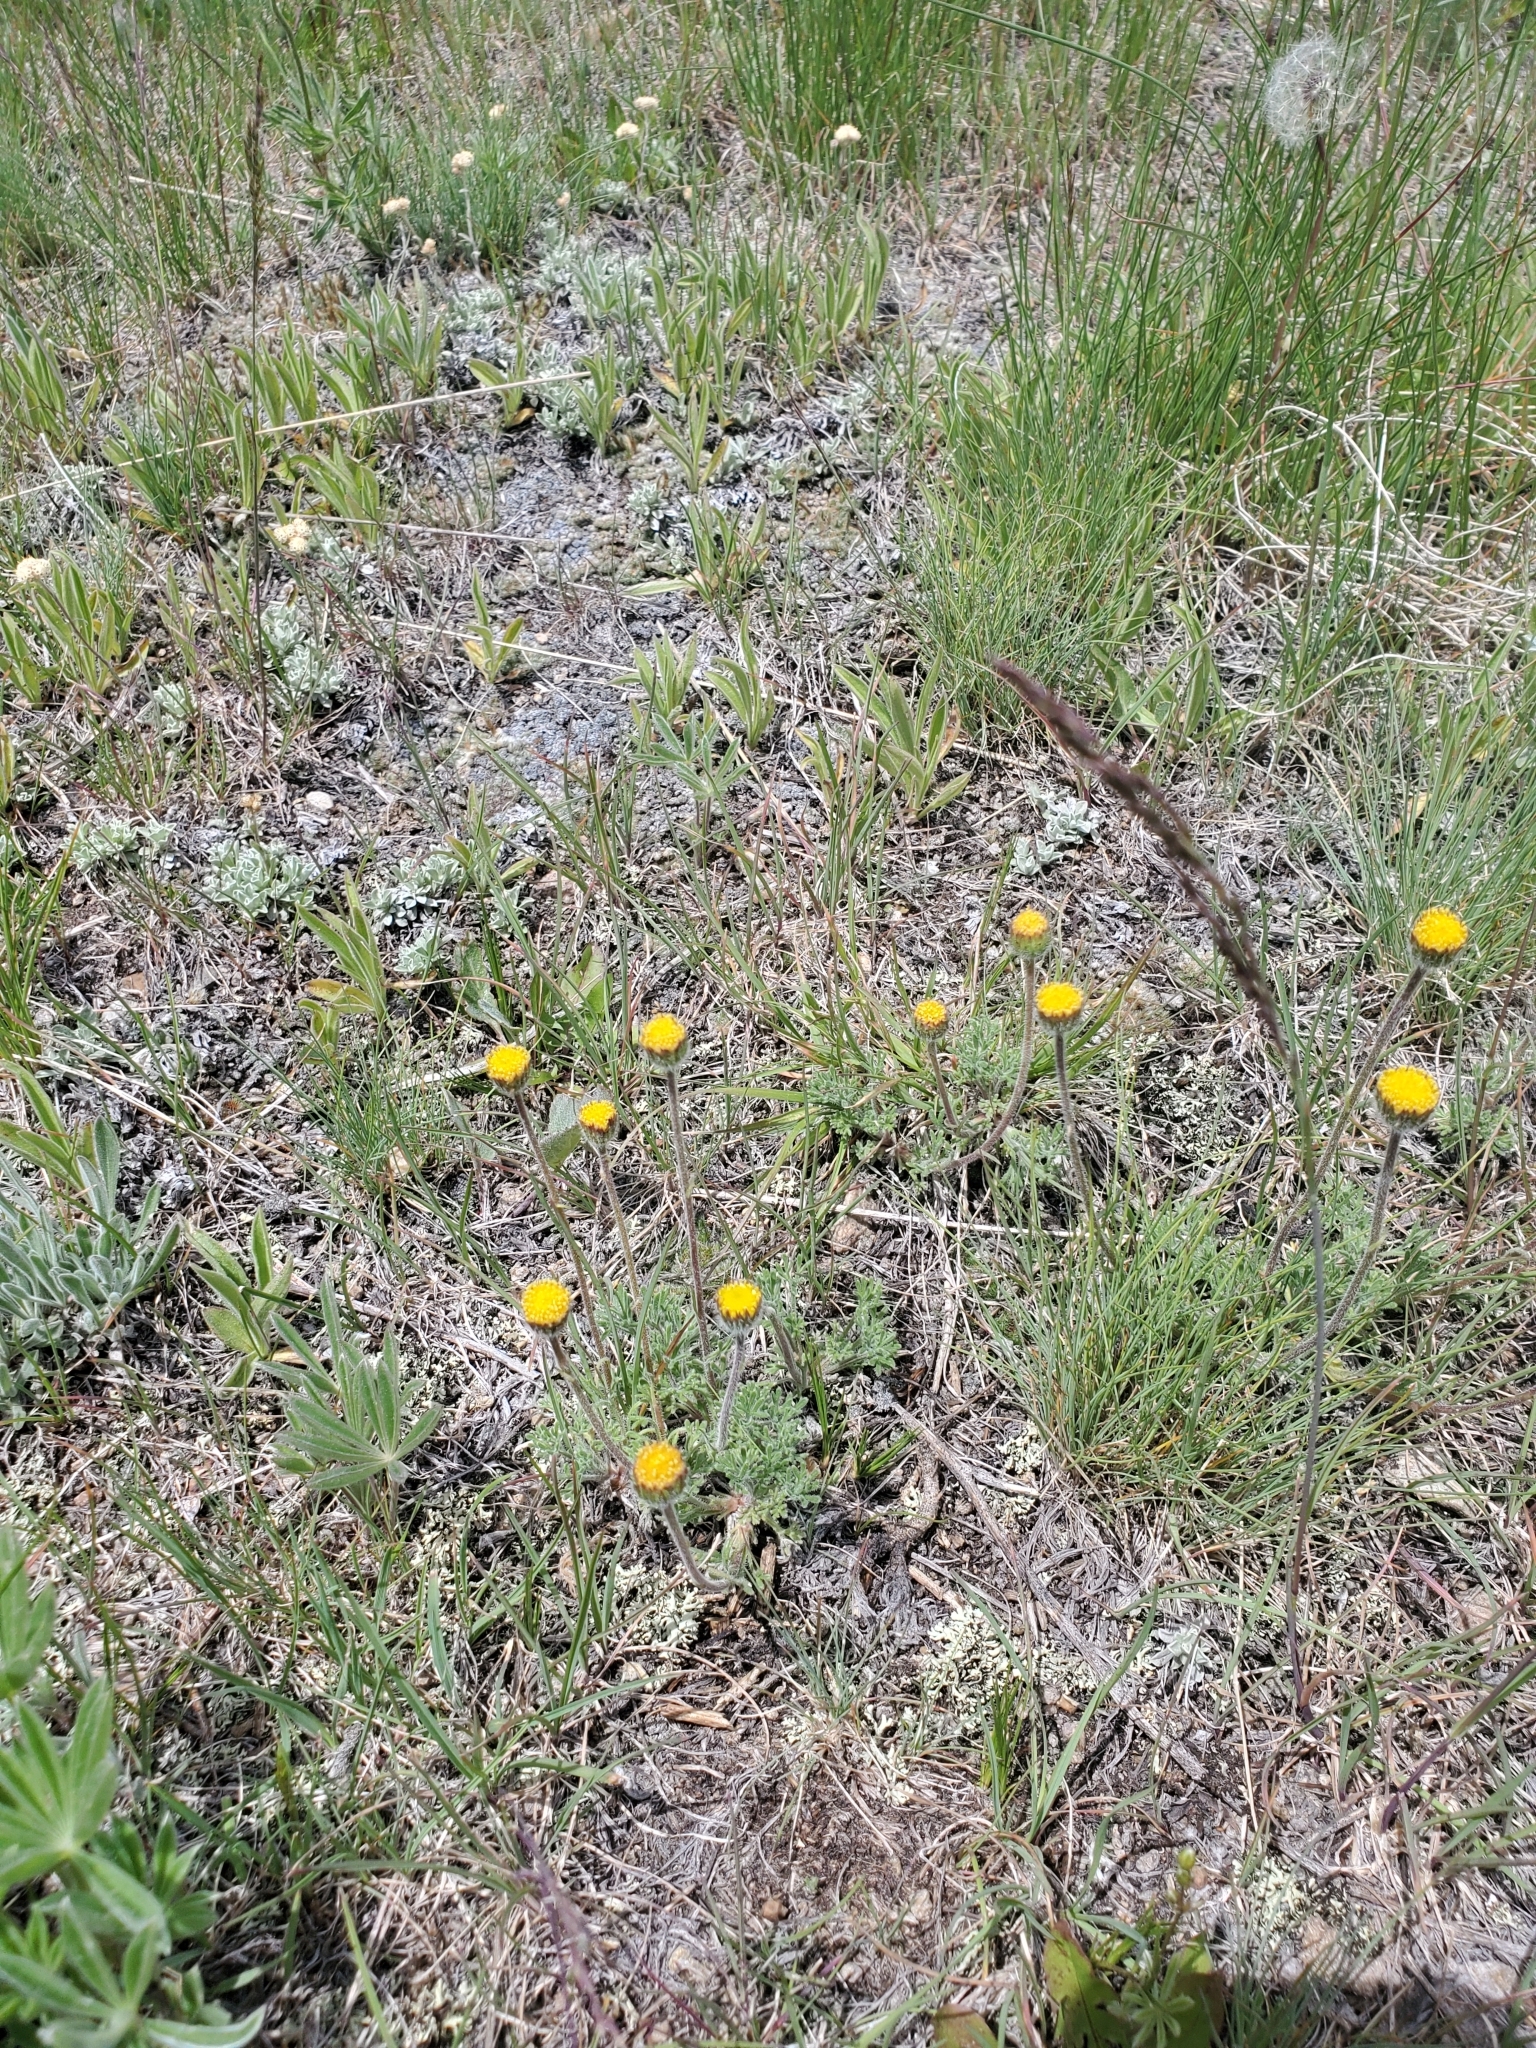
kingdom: Plantae
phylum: Tracheophyta
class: Magnoliopsida
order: Asterales
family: Asteraceae
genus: Erigeron
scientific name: Erigeron compositus
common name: Dwarf mountain fleabane
